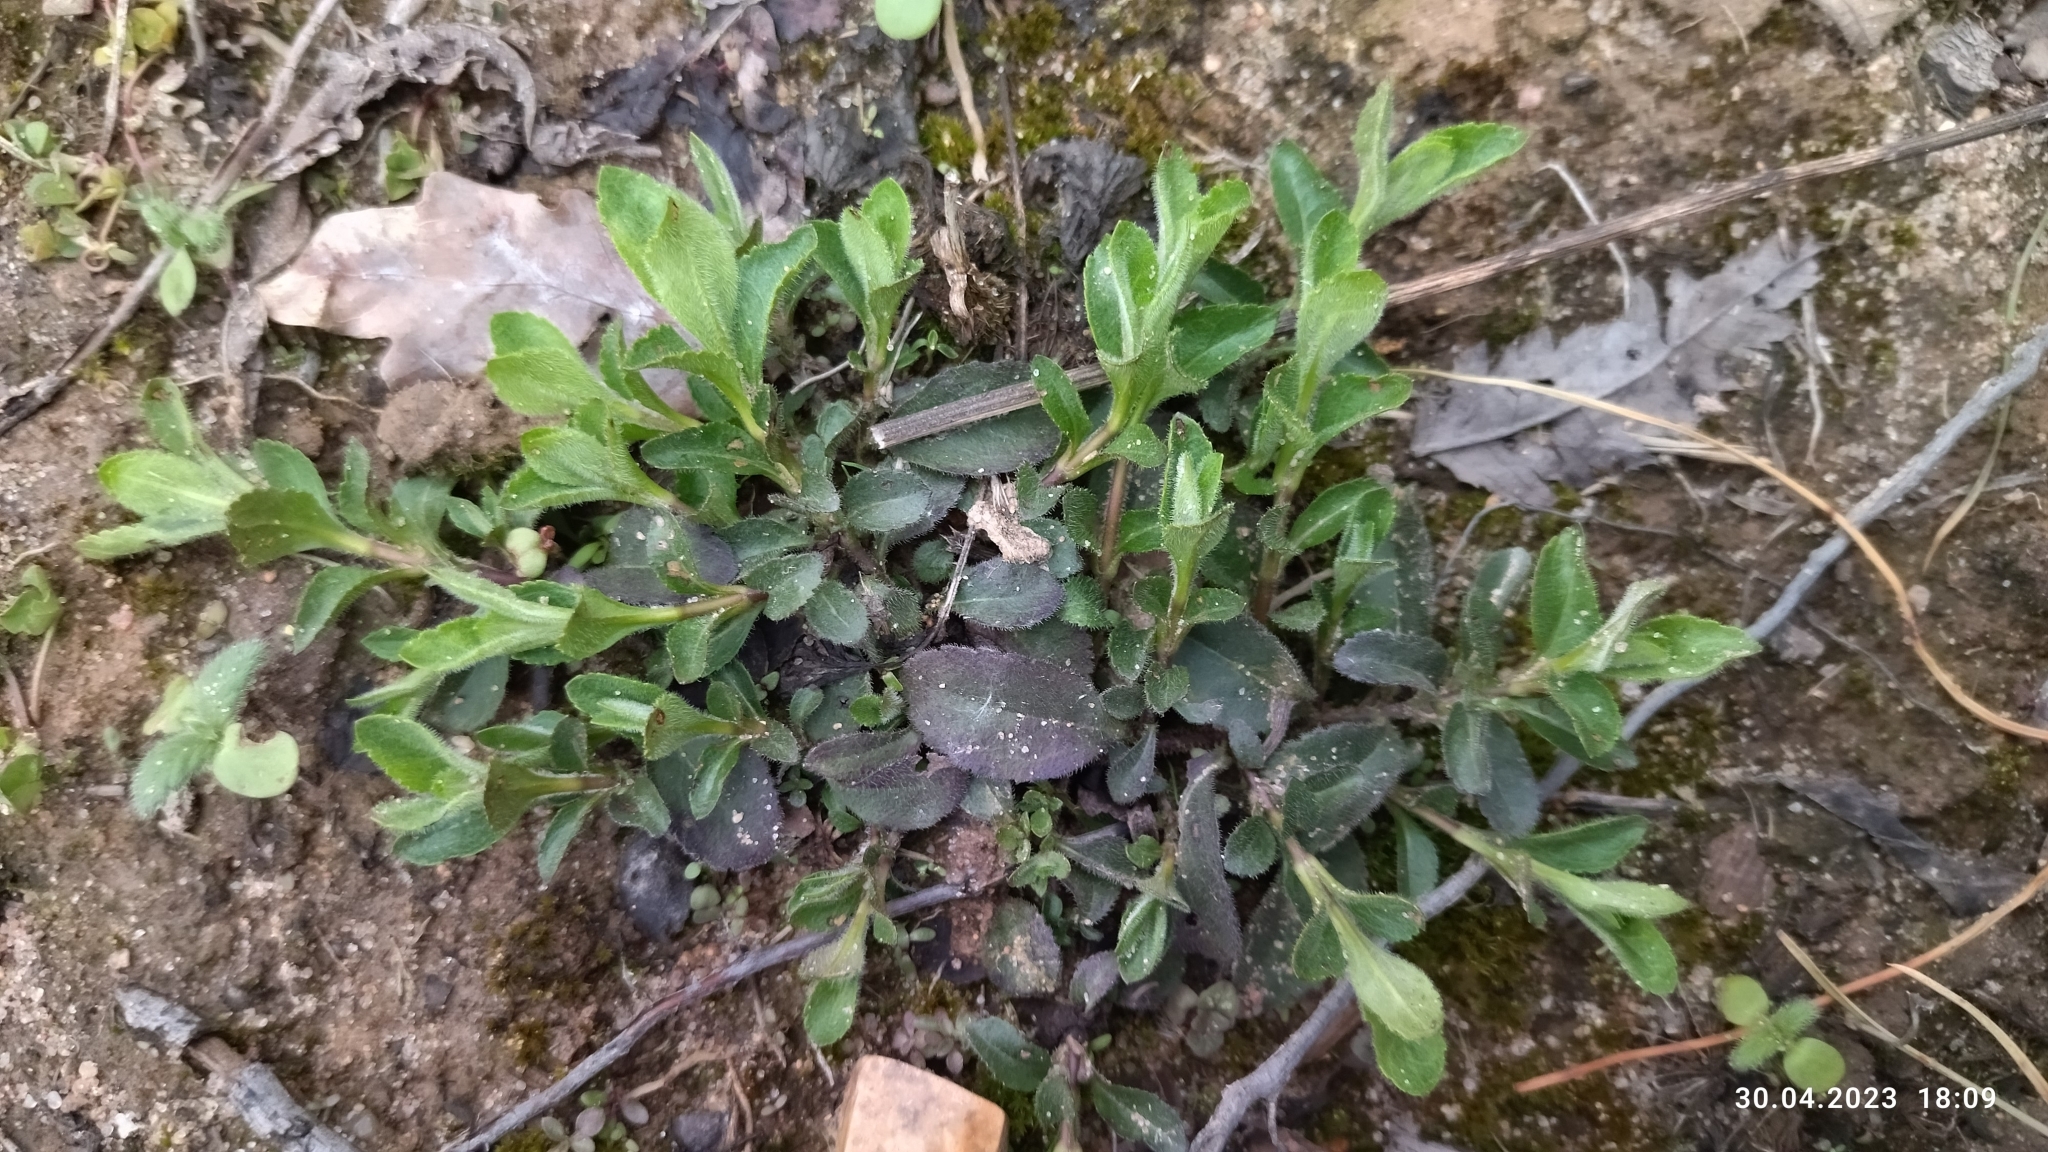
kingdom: Plantae
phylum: Tracheophyta
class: Magnoliopsida
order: Lamiales
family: Plantaginaceae
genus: Veronica
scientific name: Veronica officinalis
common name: Common speedwell
